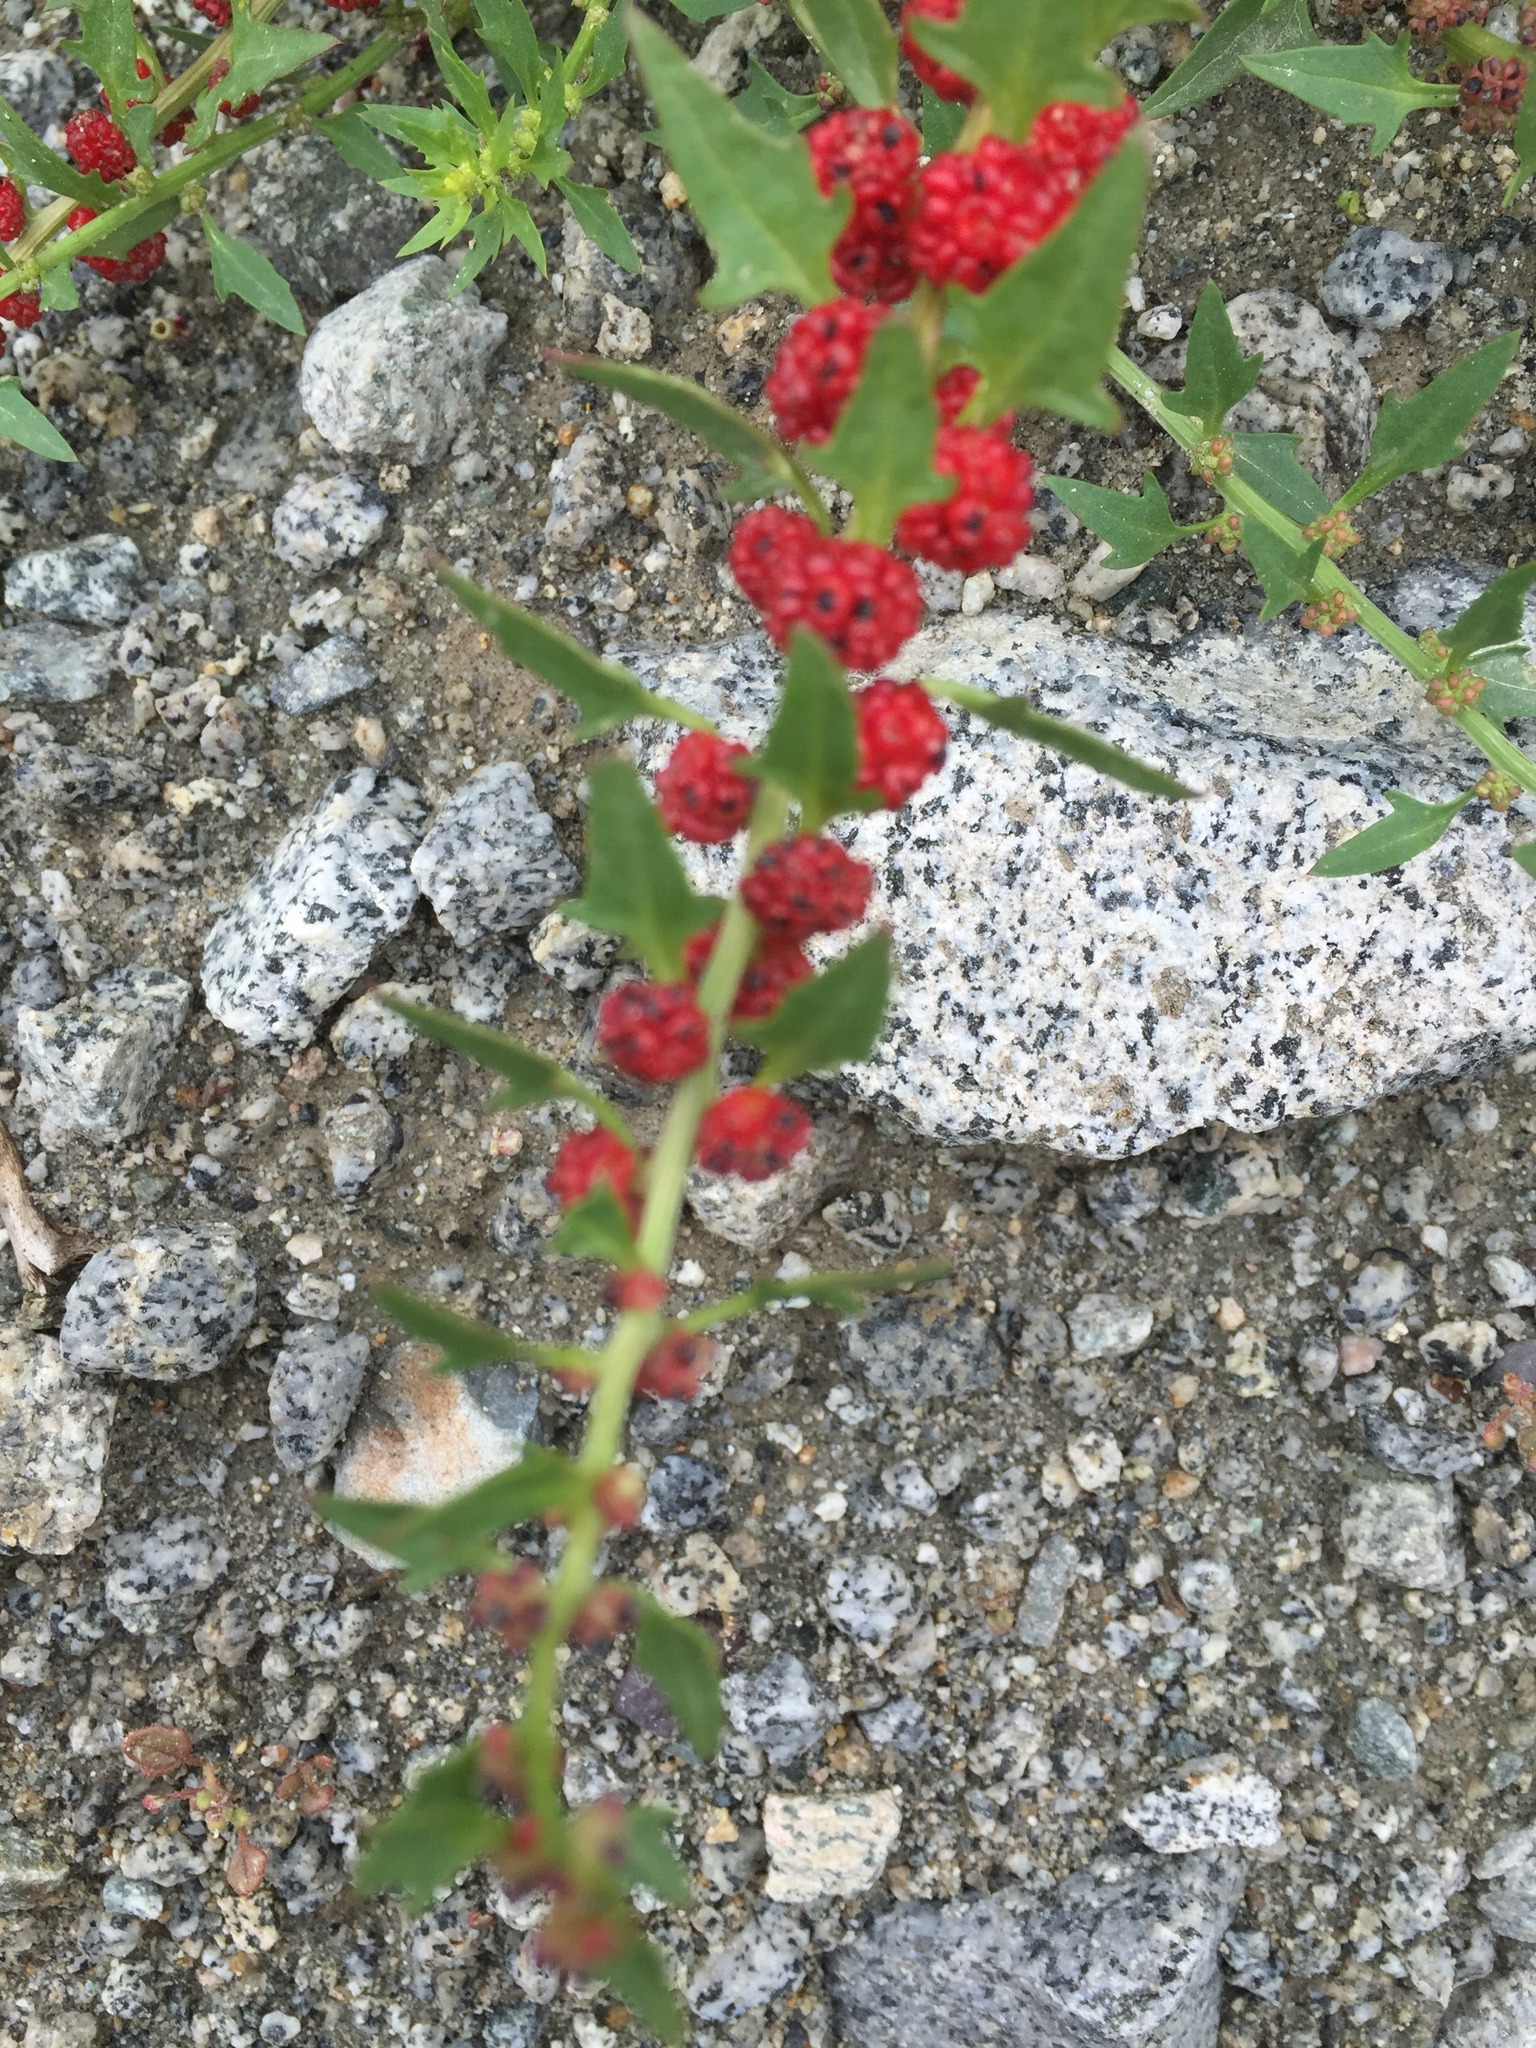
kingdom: Plantae
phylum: Tracheophyta
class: Magnoliopsida
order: Caryophyllales
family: Amaranthaceae
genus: Blitum
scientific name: Blitum virgatum
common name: Strawberry goosefoot
